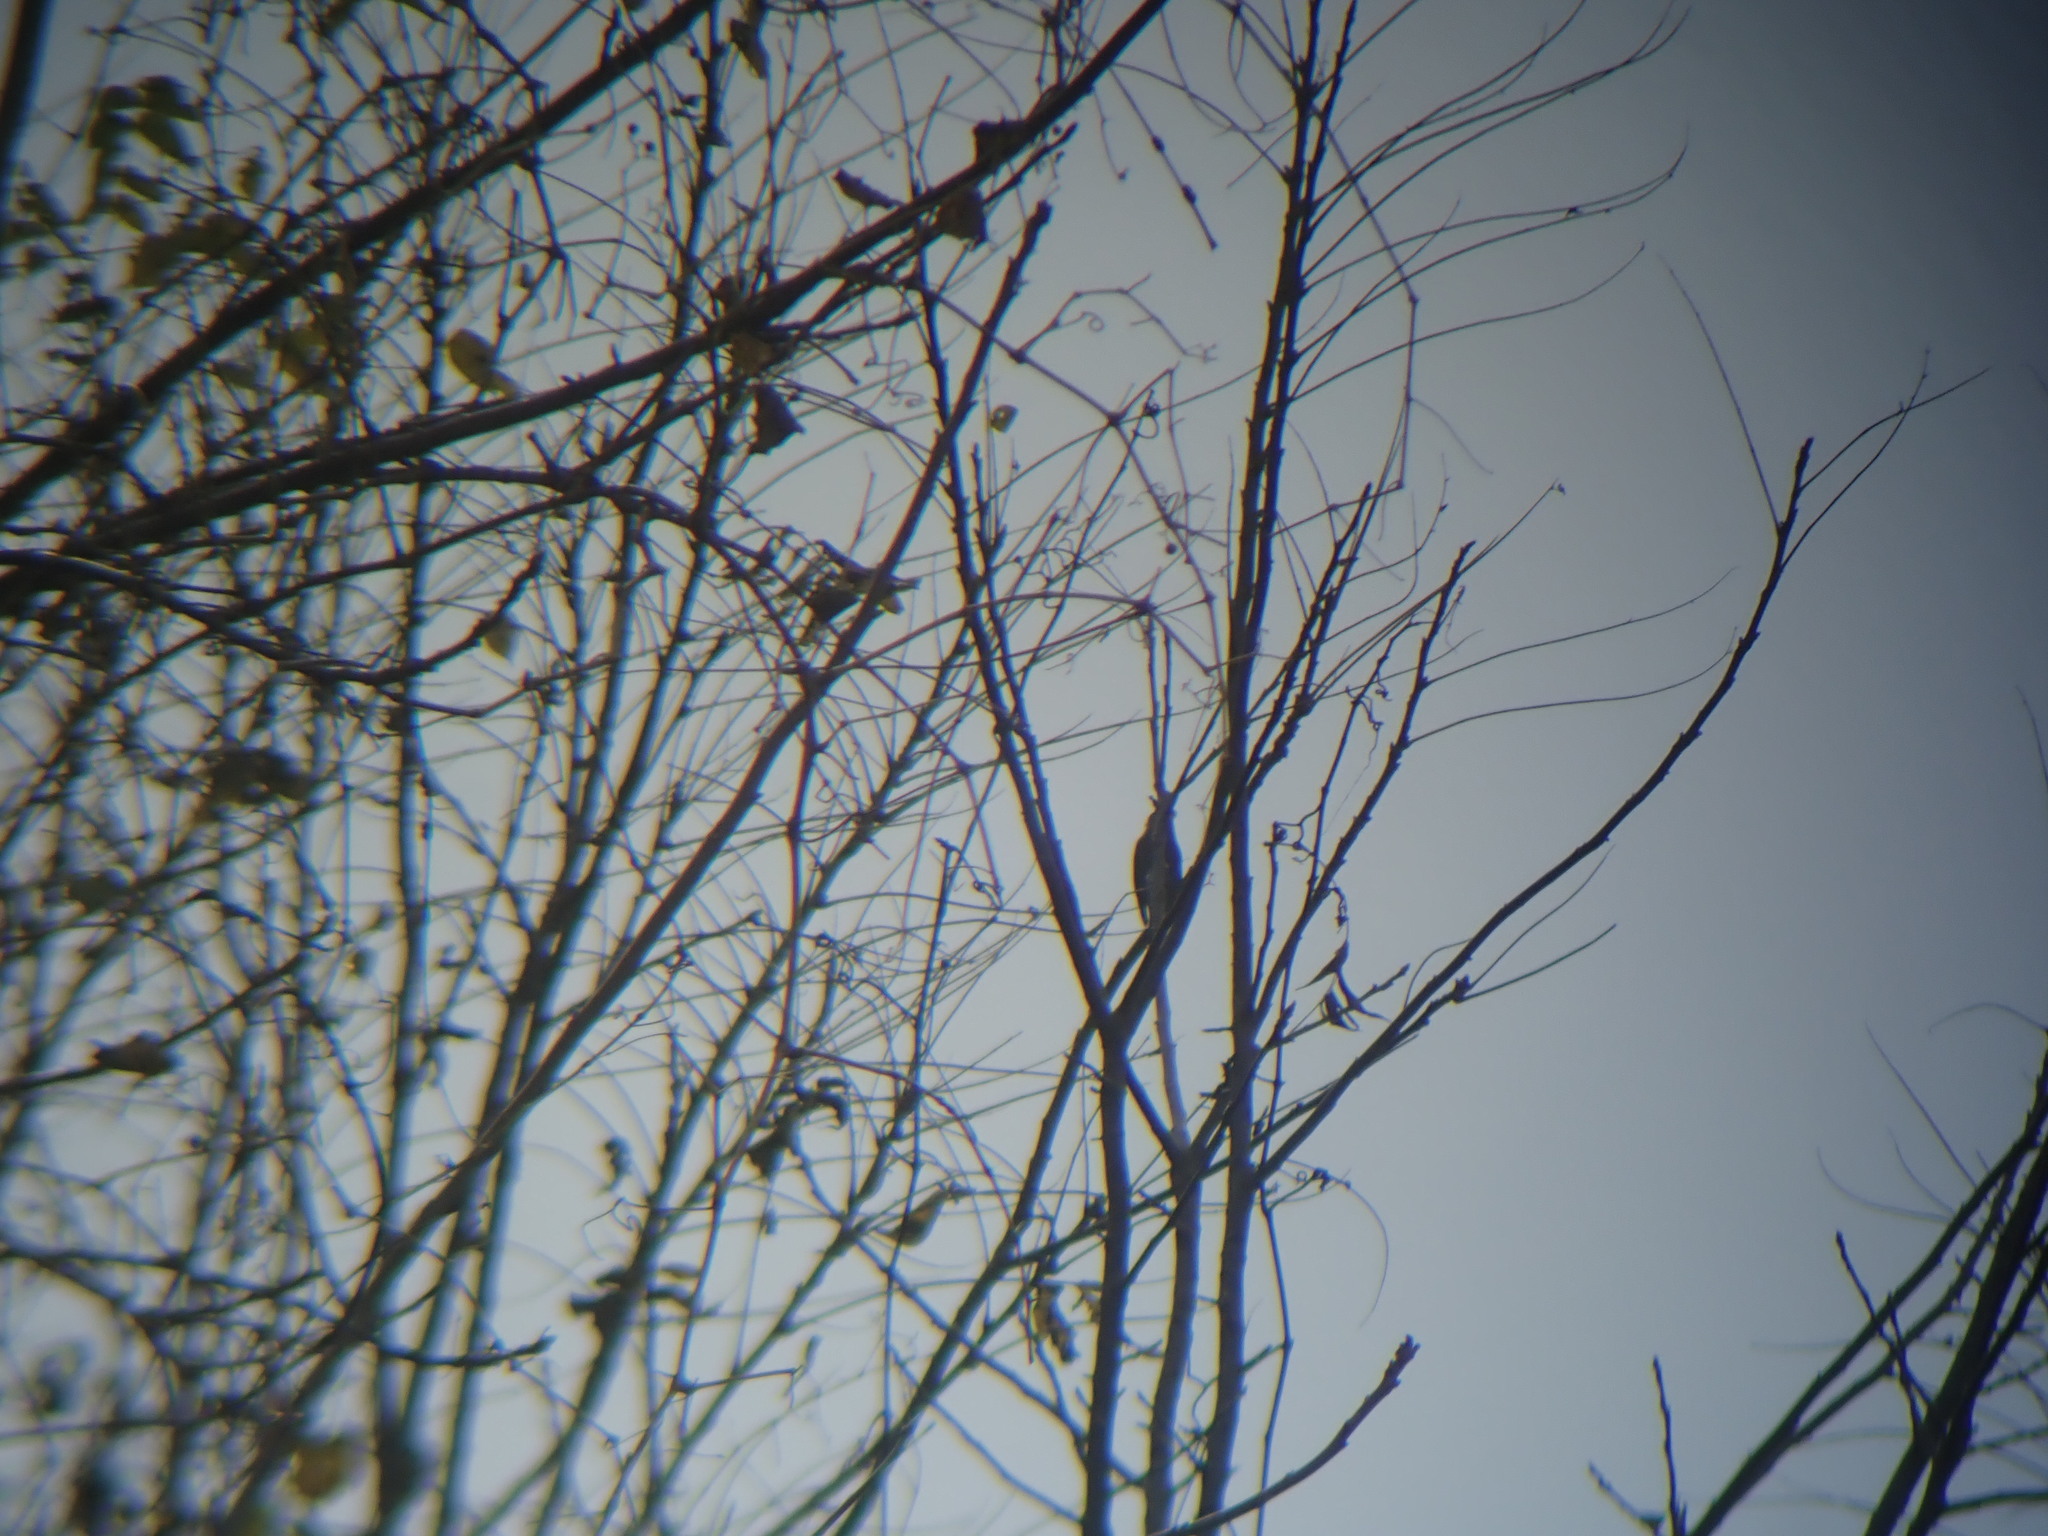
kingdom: Animalia
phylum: Chordata
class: Aves
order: Passeriformes
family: Bombycillidae
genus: Bombycilla
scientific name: Bombycilla cedrorum
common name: Cedar waxwing
